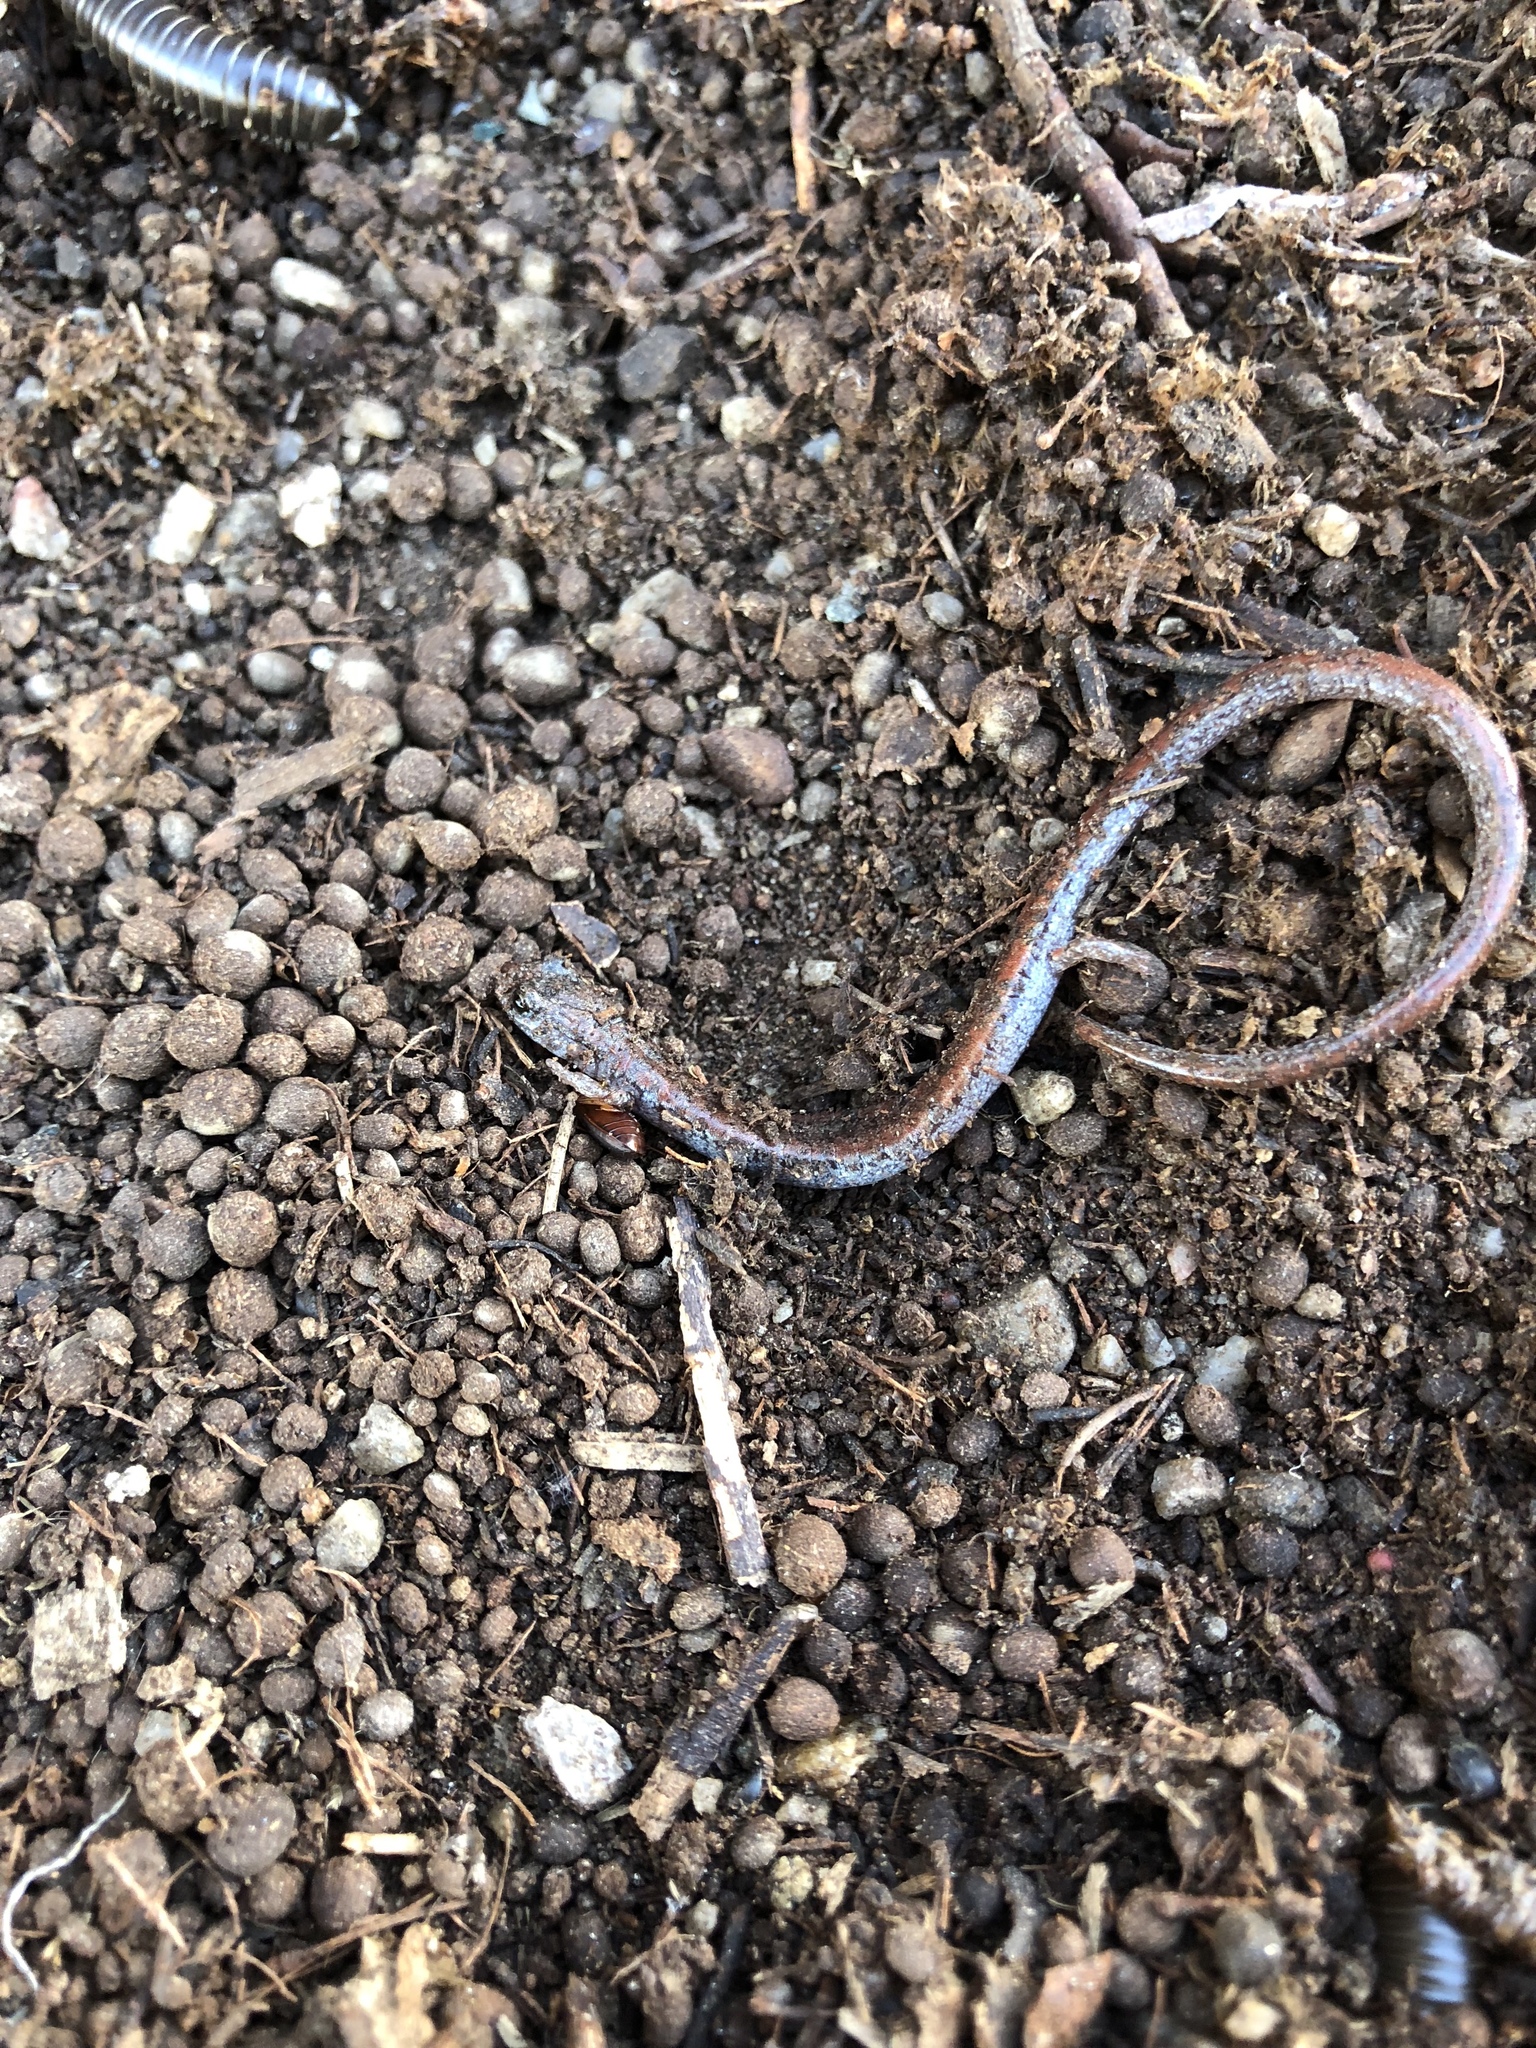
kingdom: Animalia
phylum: Chordata
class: Amphibia
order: Caudata
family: Plethodontidae
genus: Batrachoseps
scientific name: Batrachoseps major
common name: Garden slender salamander
